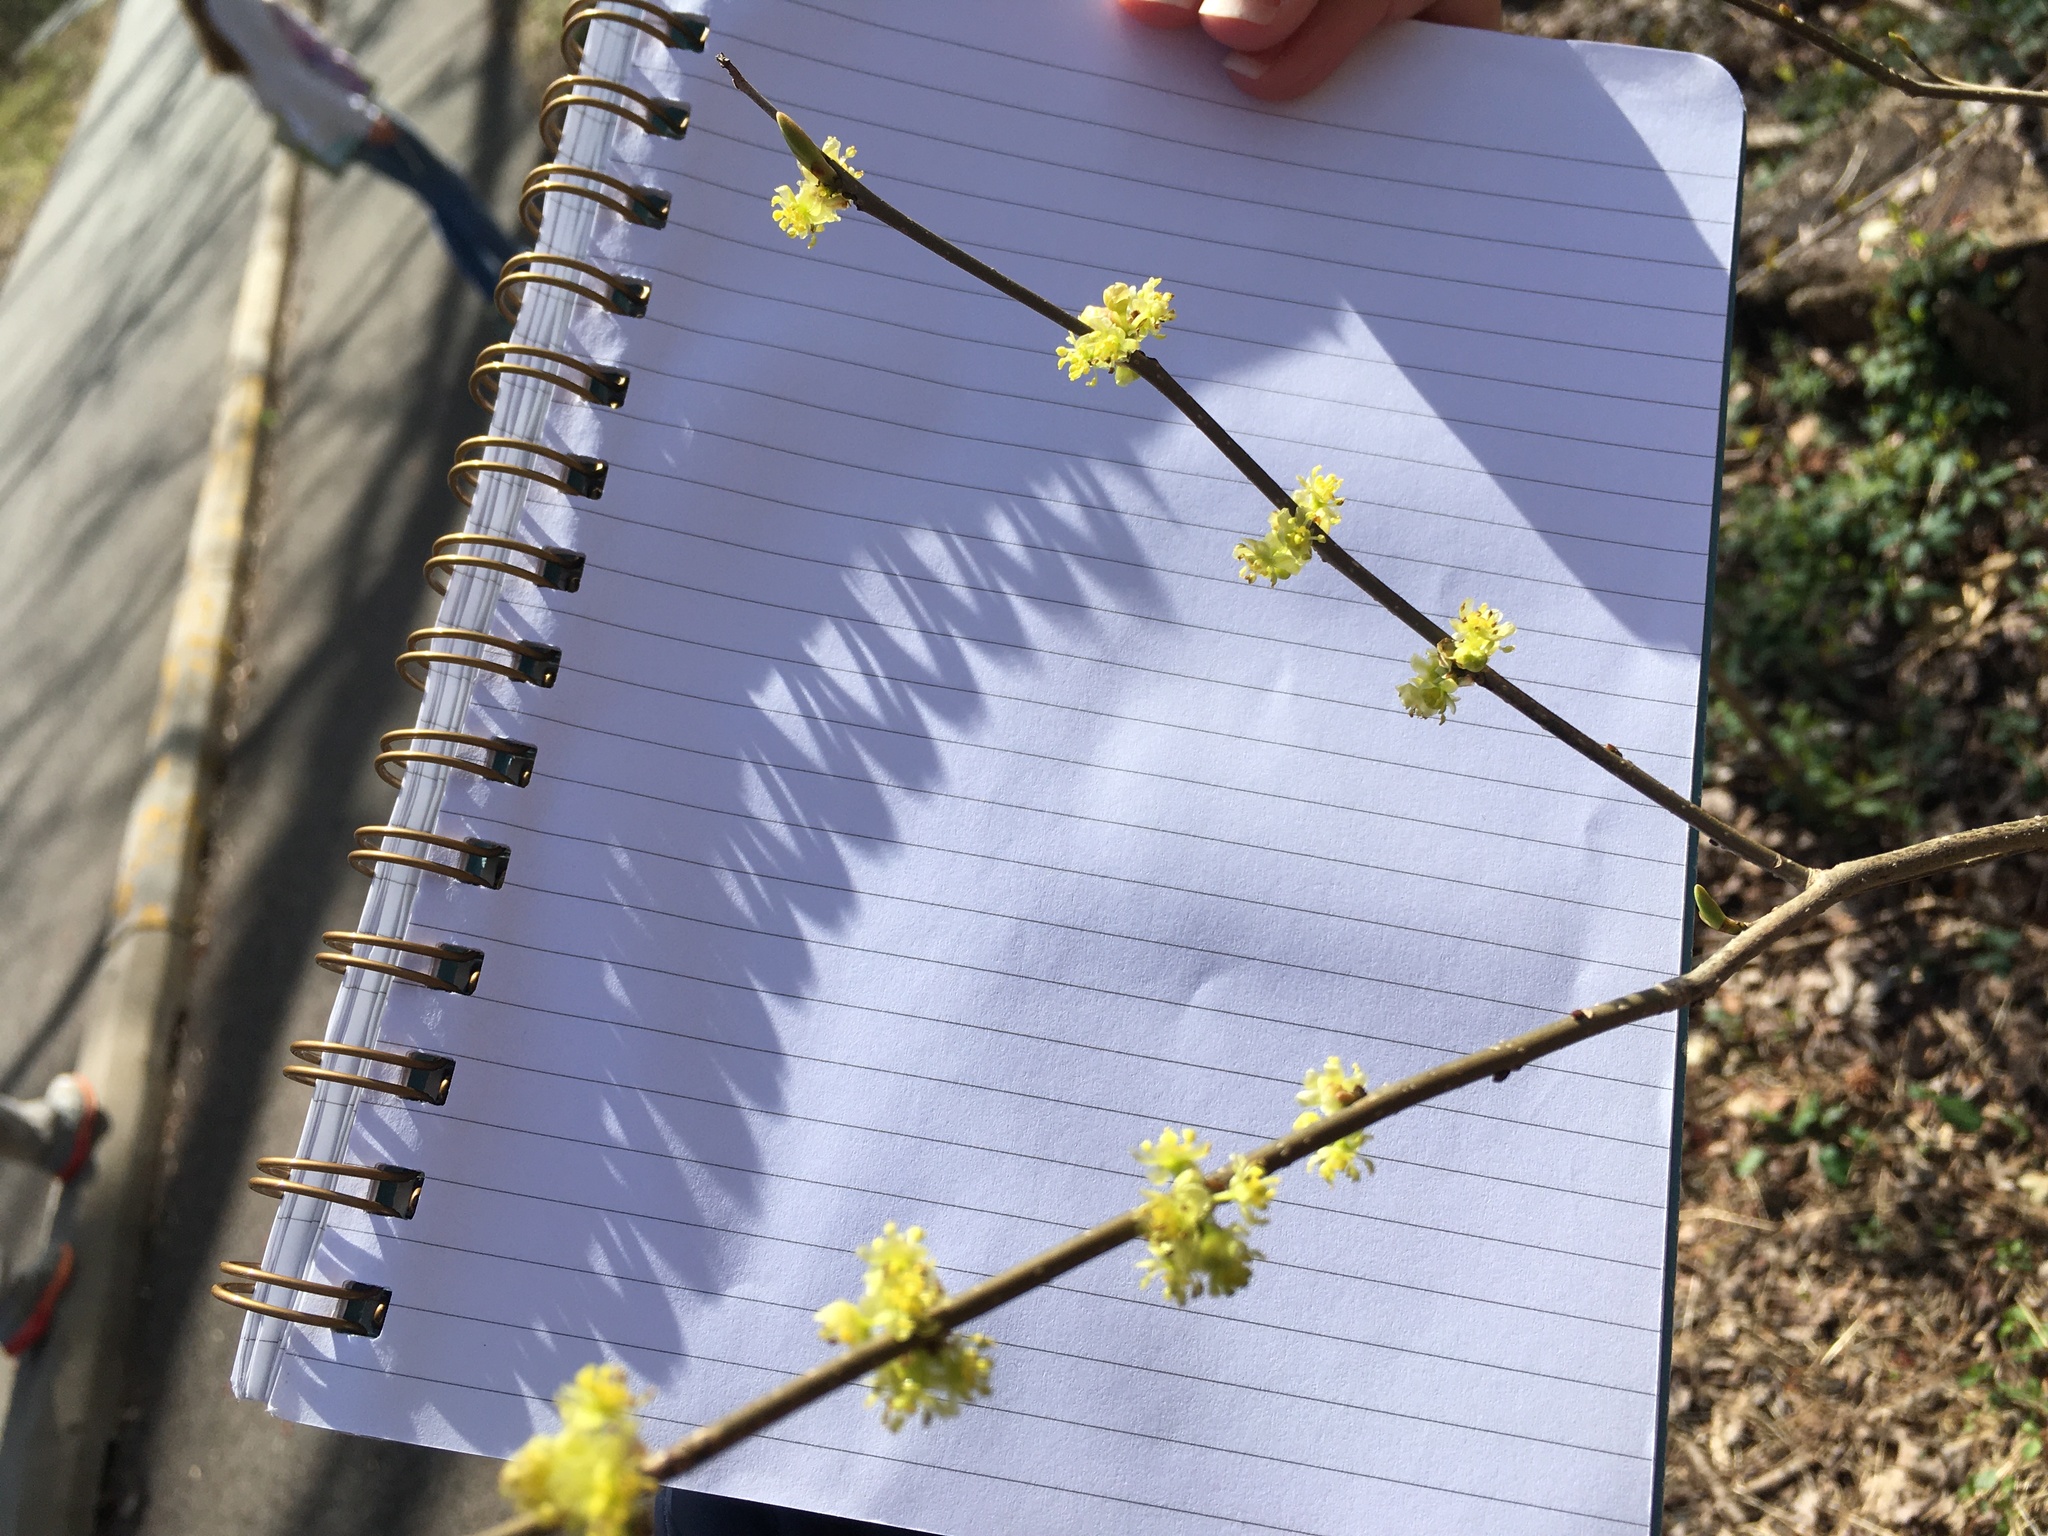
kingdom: Plantae
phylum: Tracheophyta
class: Magnoliopsida
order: Laurales
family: Lauraceae
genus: Lindera
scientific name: Lindera benzoin
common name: Spicebush
